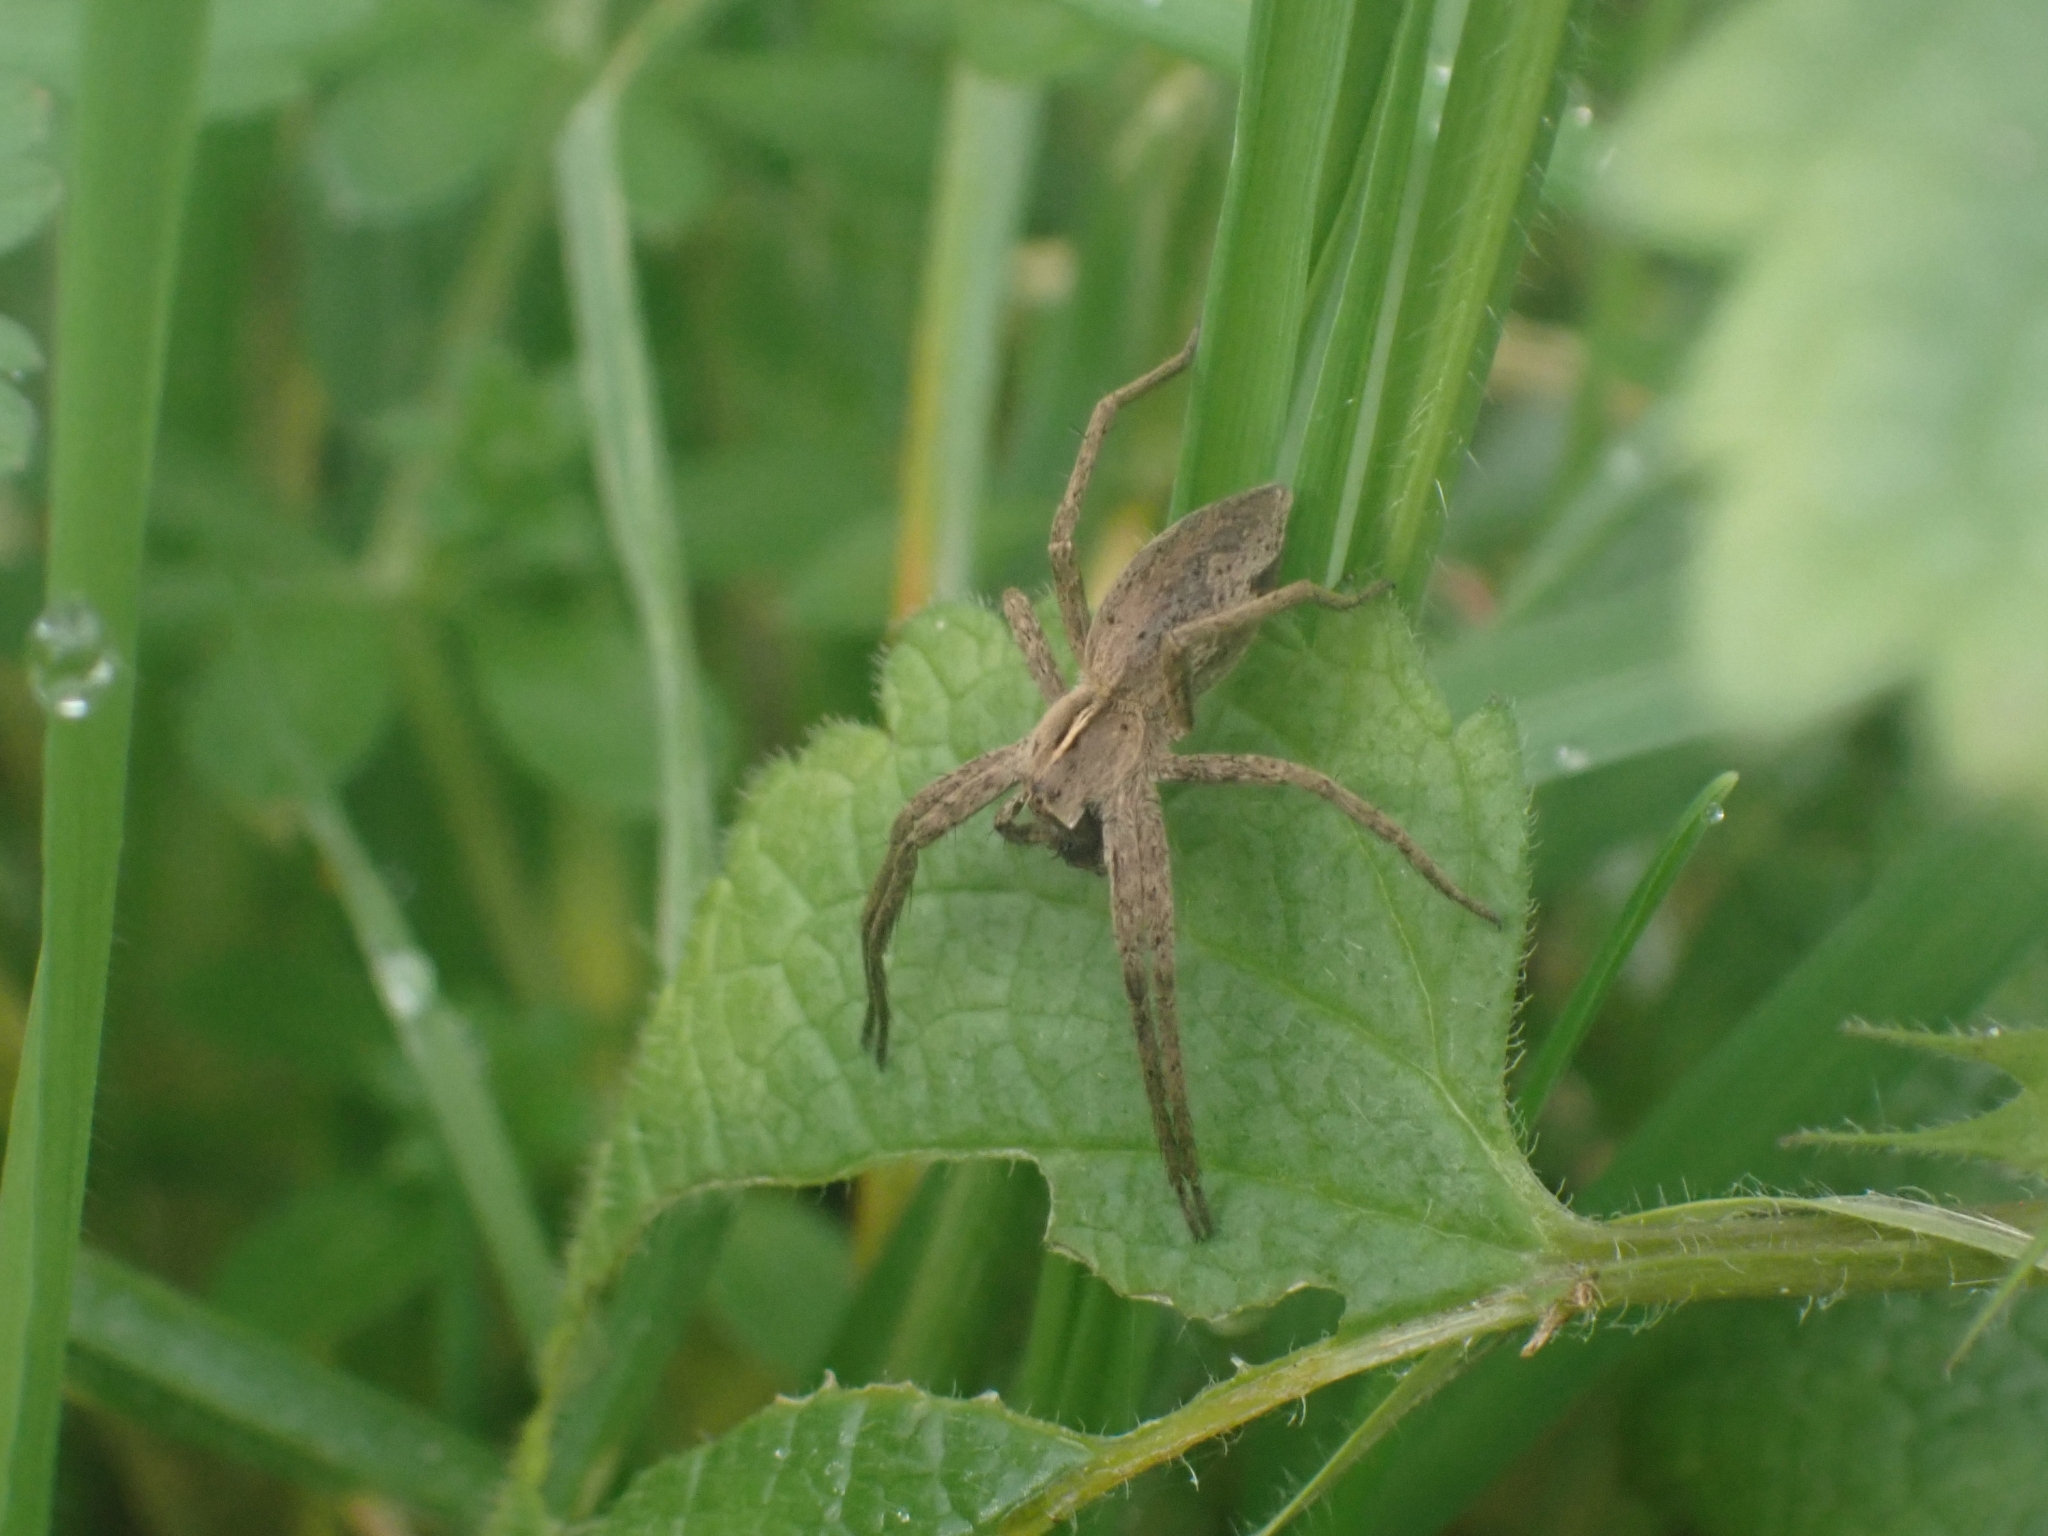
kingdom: Animalia
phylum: Arthropoda
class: Arachnida
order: Araneae
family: Pisauridae
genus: Pisaura
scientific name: Pisaura mirabilis
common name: Tent spider
